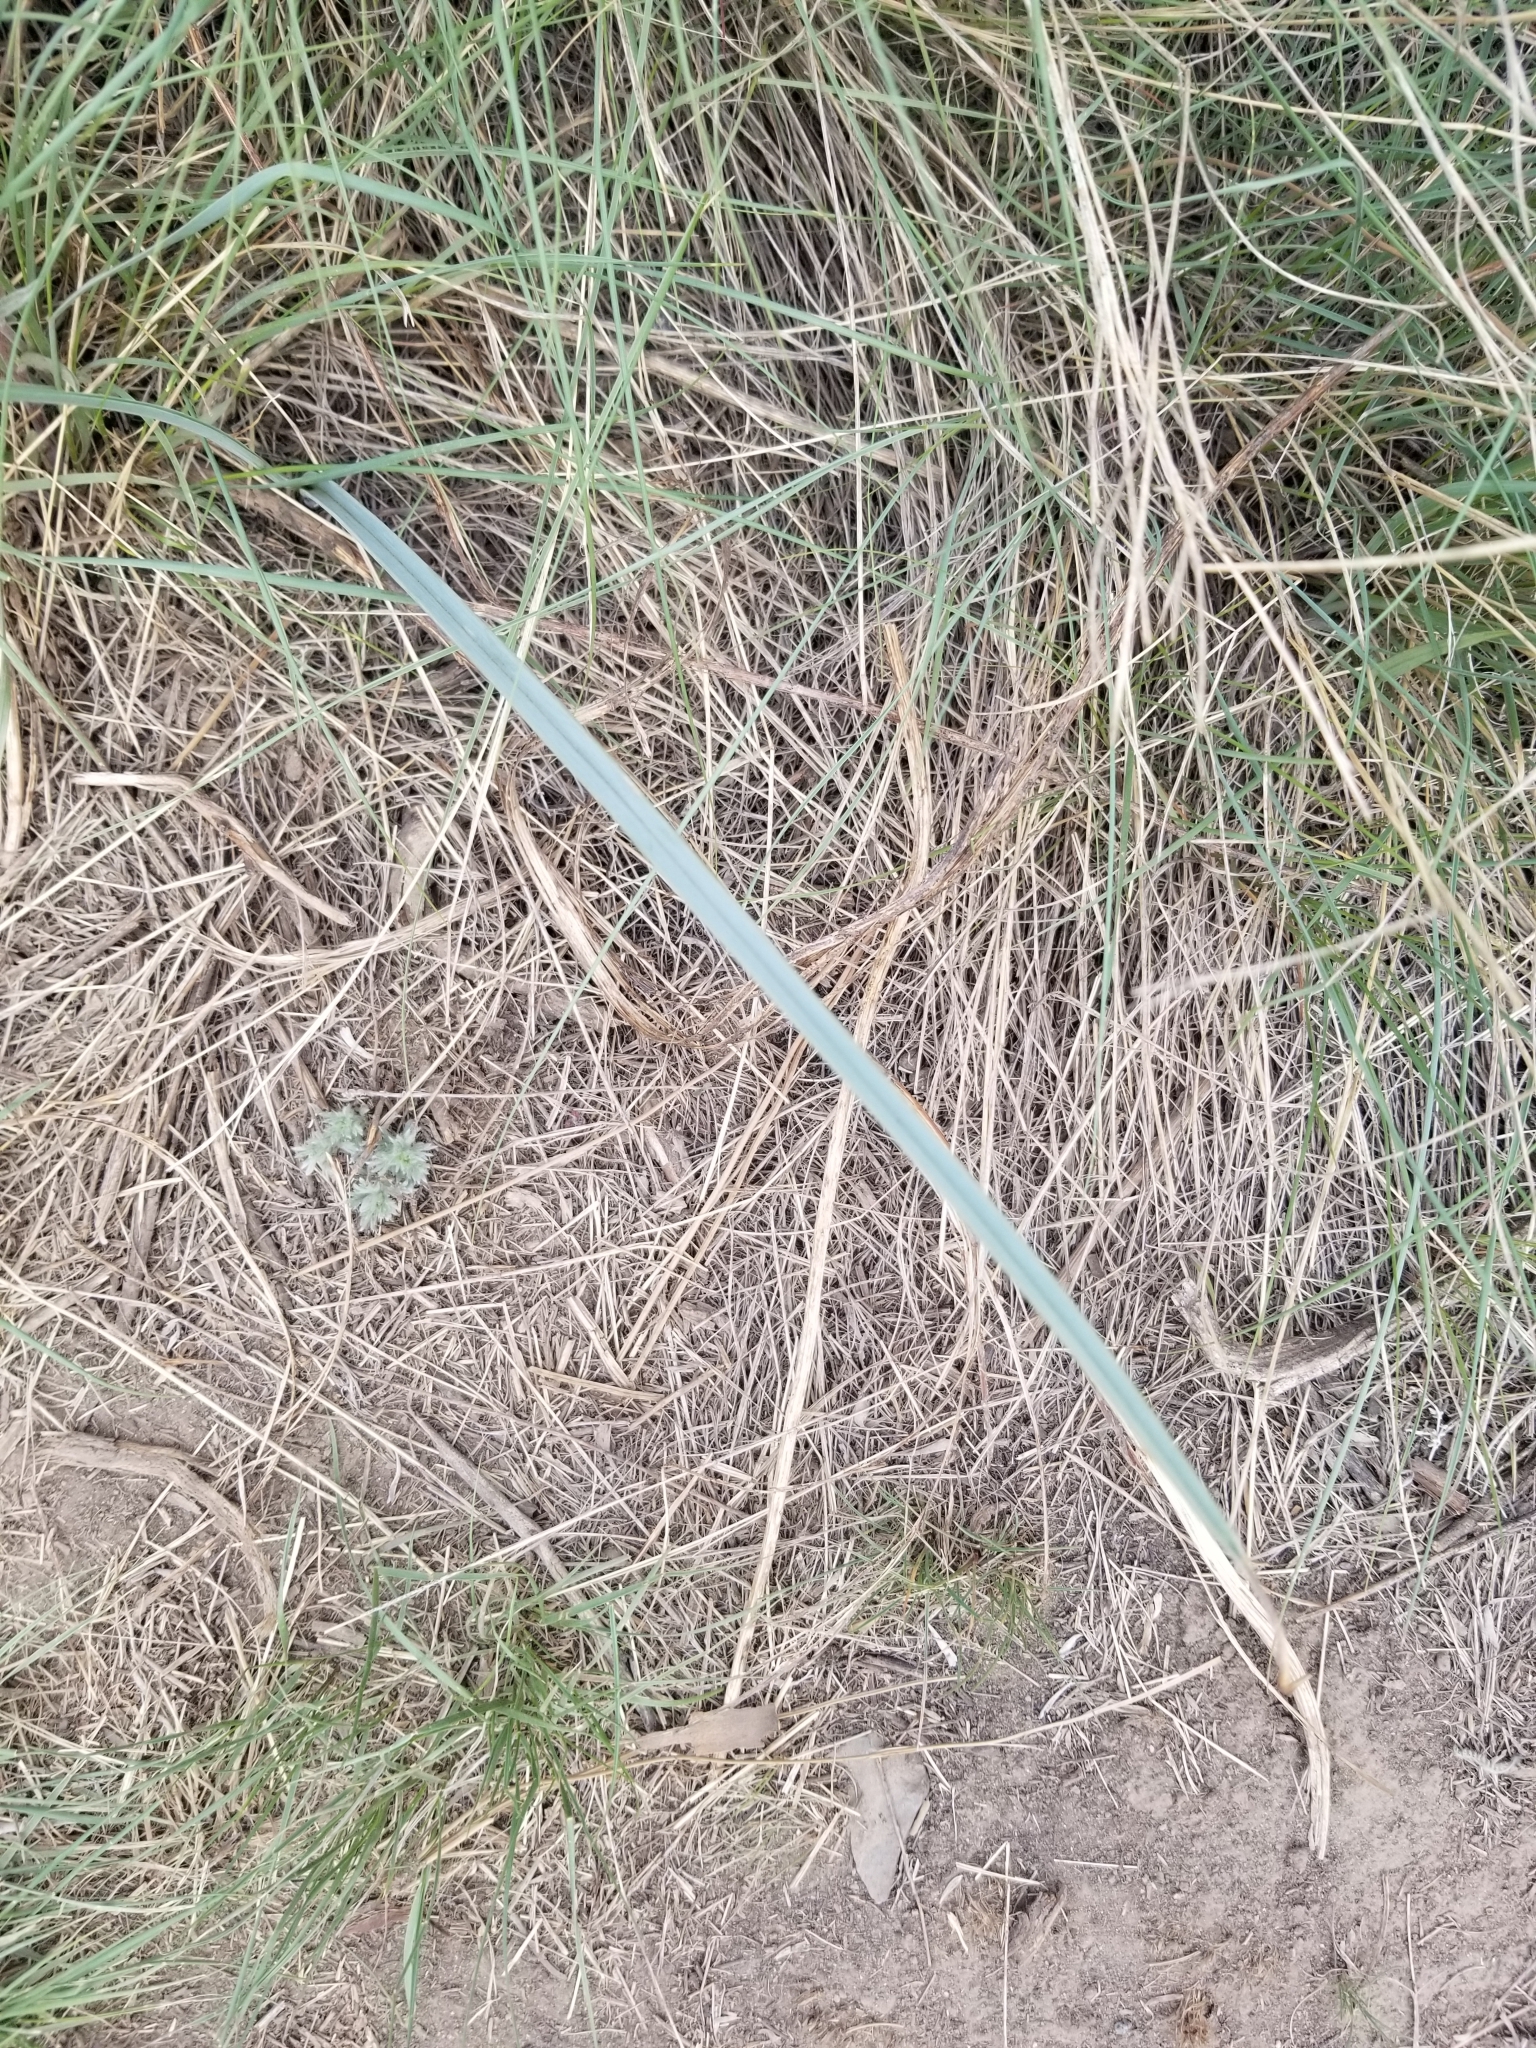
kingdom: Plantae
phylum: Tracheophyta
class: Liliopsida
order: Liliales
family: Liliaceae
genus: Calochortus
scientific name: Calochortus macrocarpus
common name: Green-band mariposa lily
